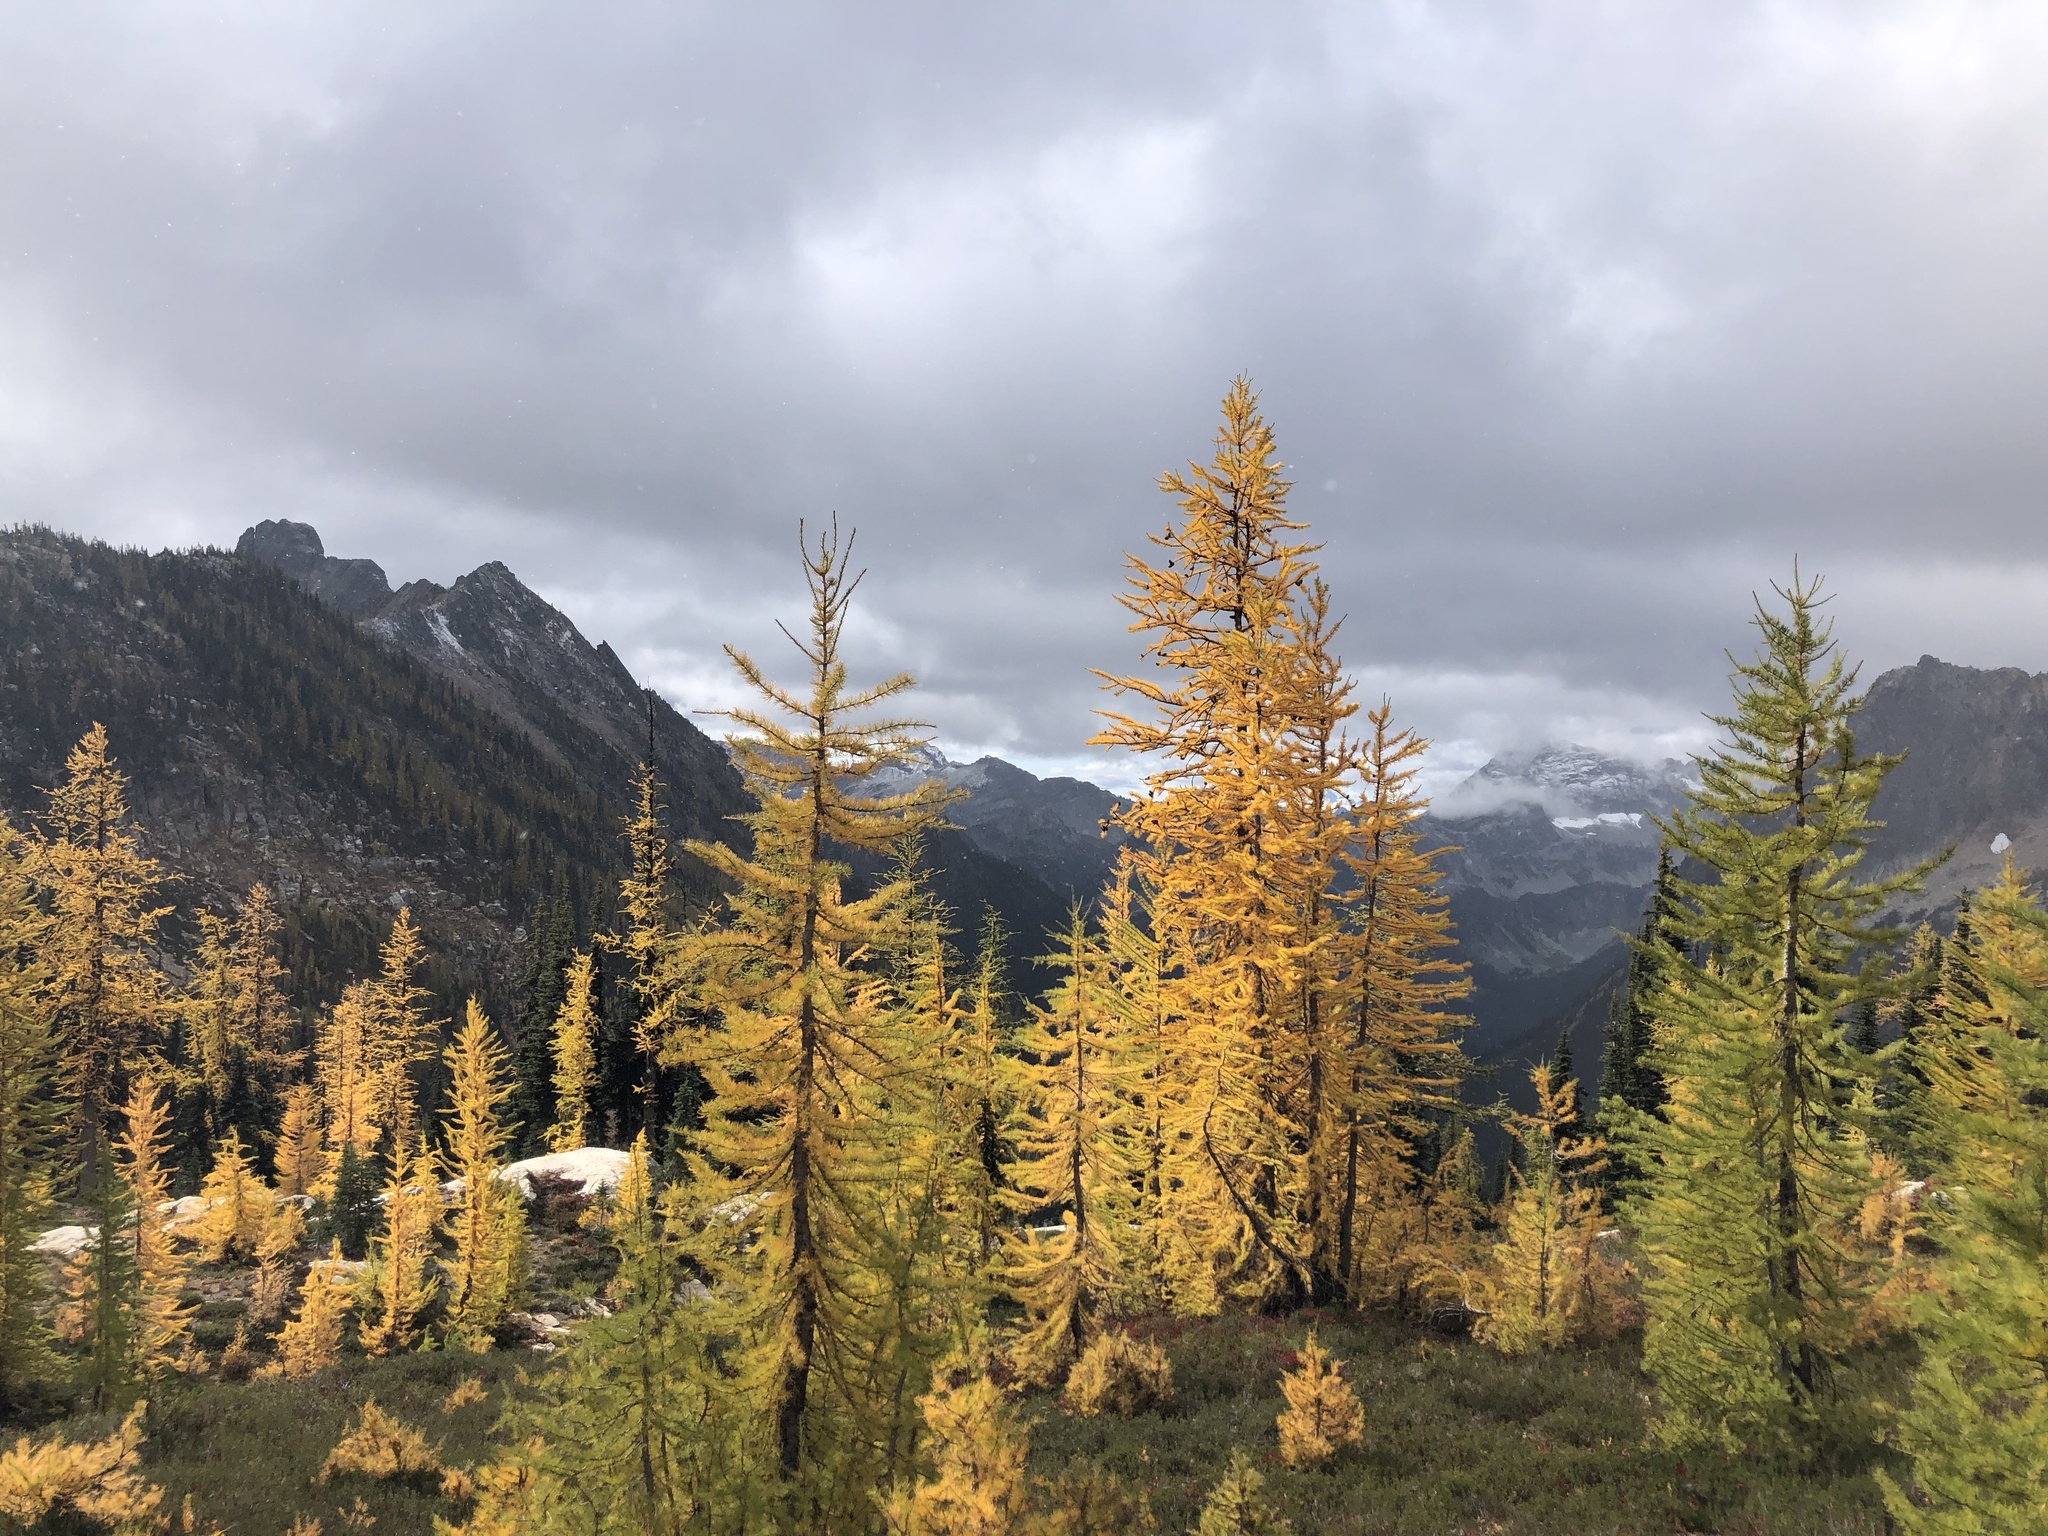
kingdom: Plantae
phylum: Tracheophyta
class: Pinopsida
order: Pinales
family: Pinaceae
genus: Larix
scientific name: Larix lyallii
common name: Alpine larch
